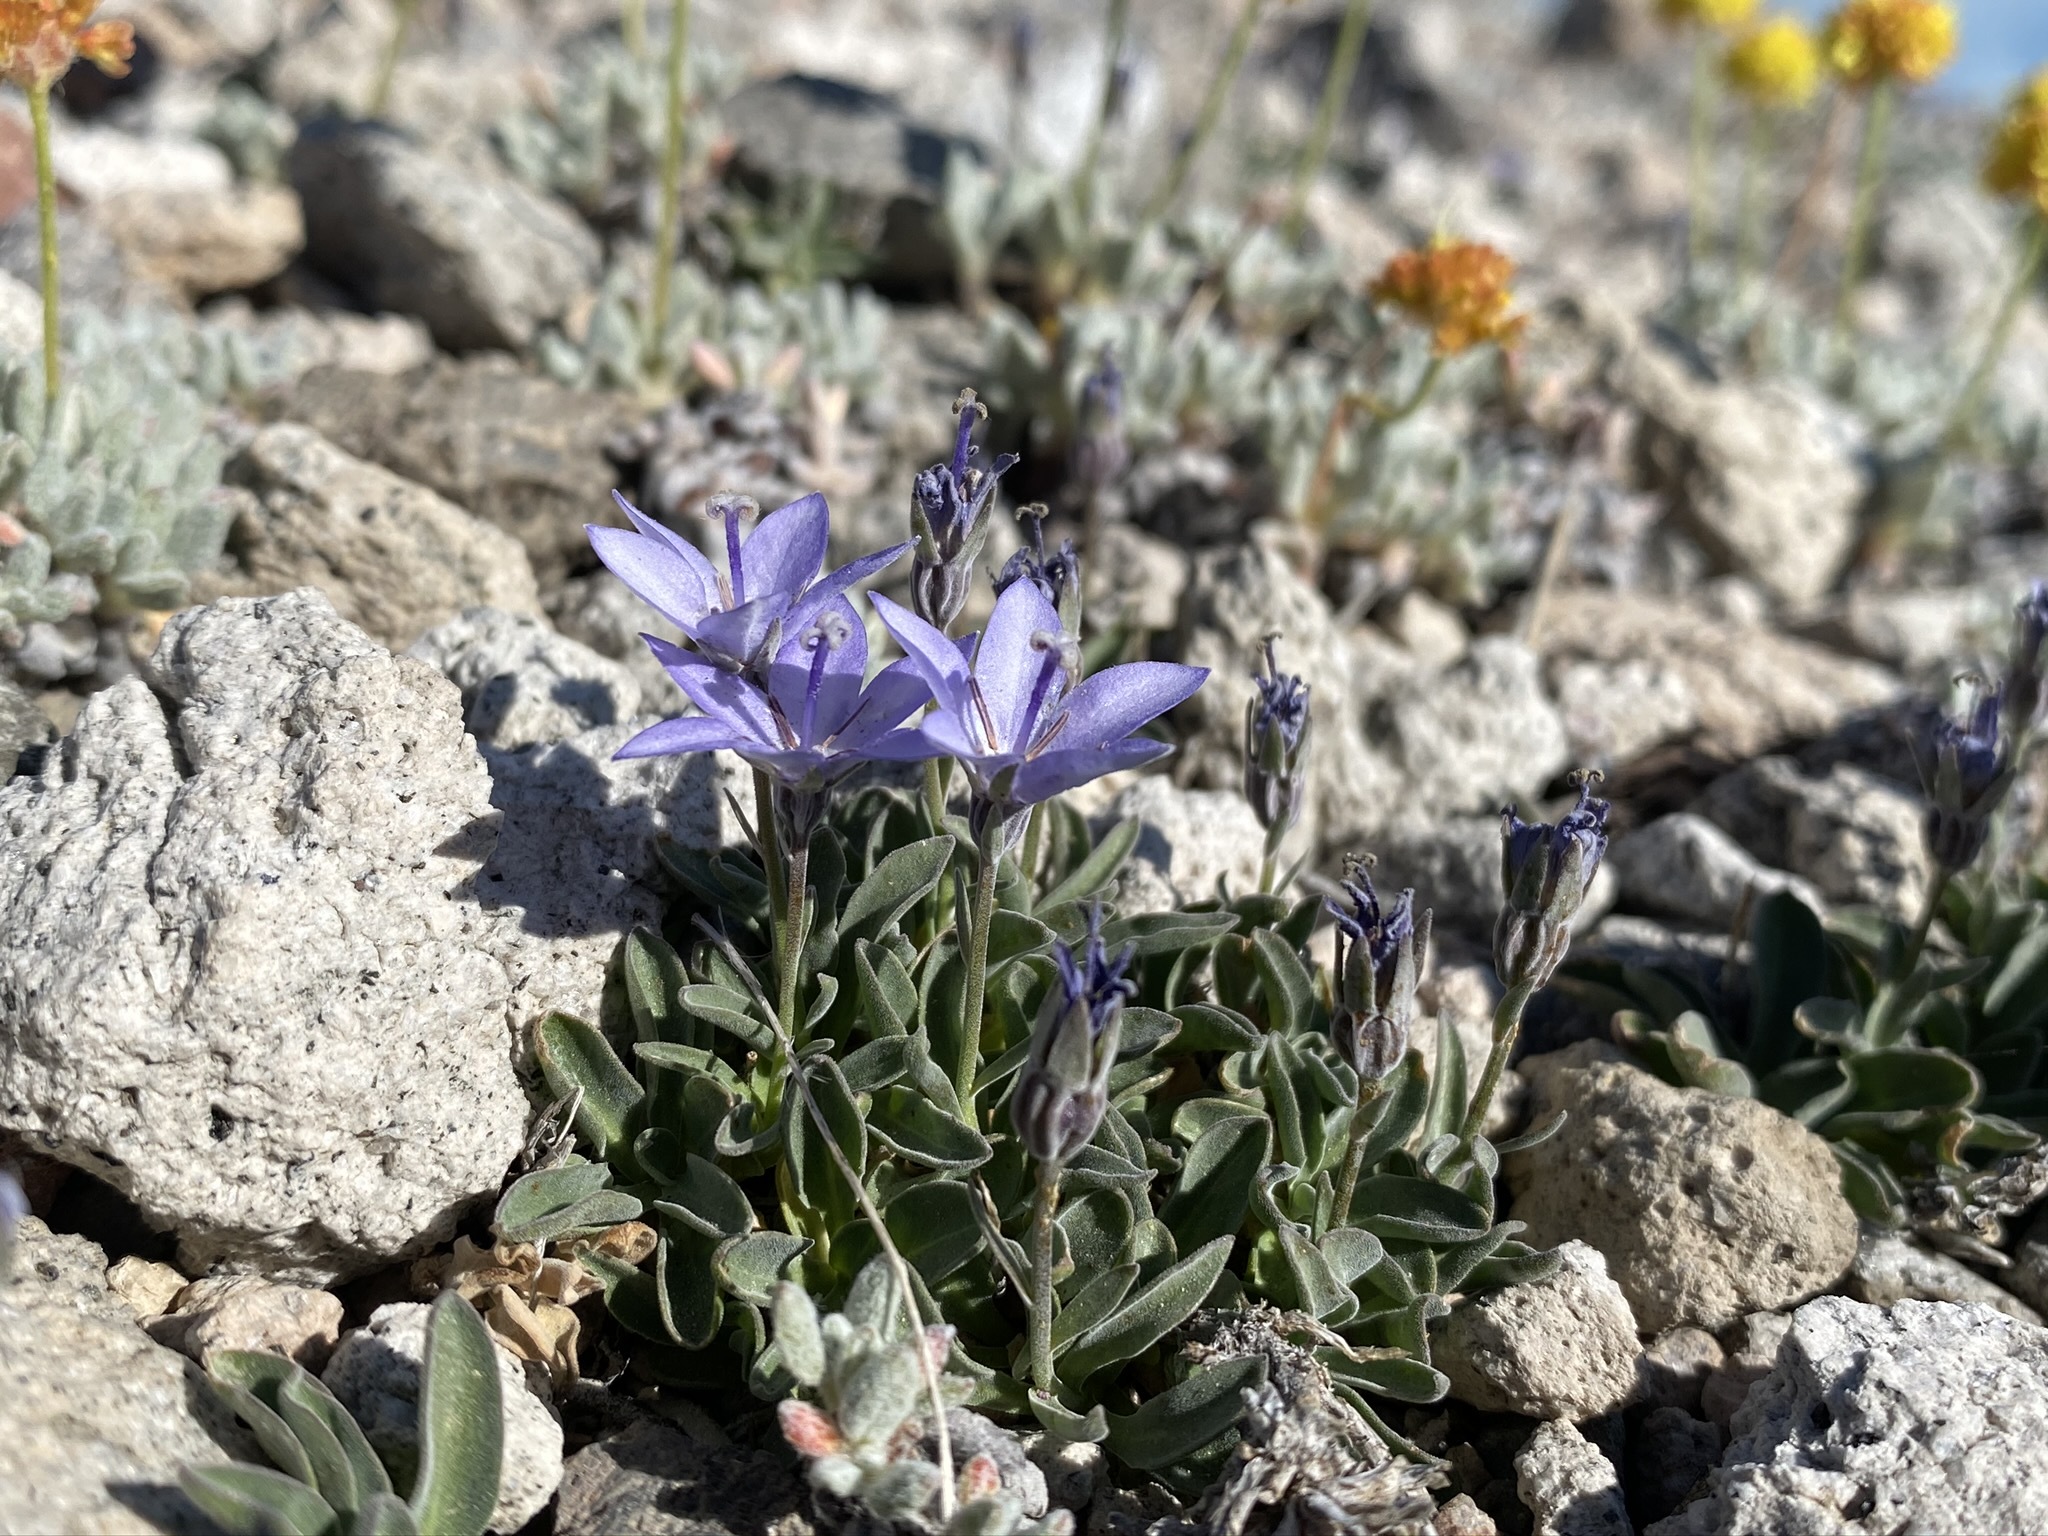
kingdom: Plantae
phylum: Tracheophyta
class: Magnoliopsida
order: Asterales
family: Campanulaceae
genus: Campanula
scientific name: Campanula scabrella
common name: Downy alpine bellflower
